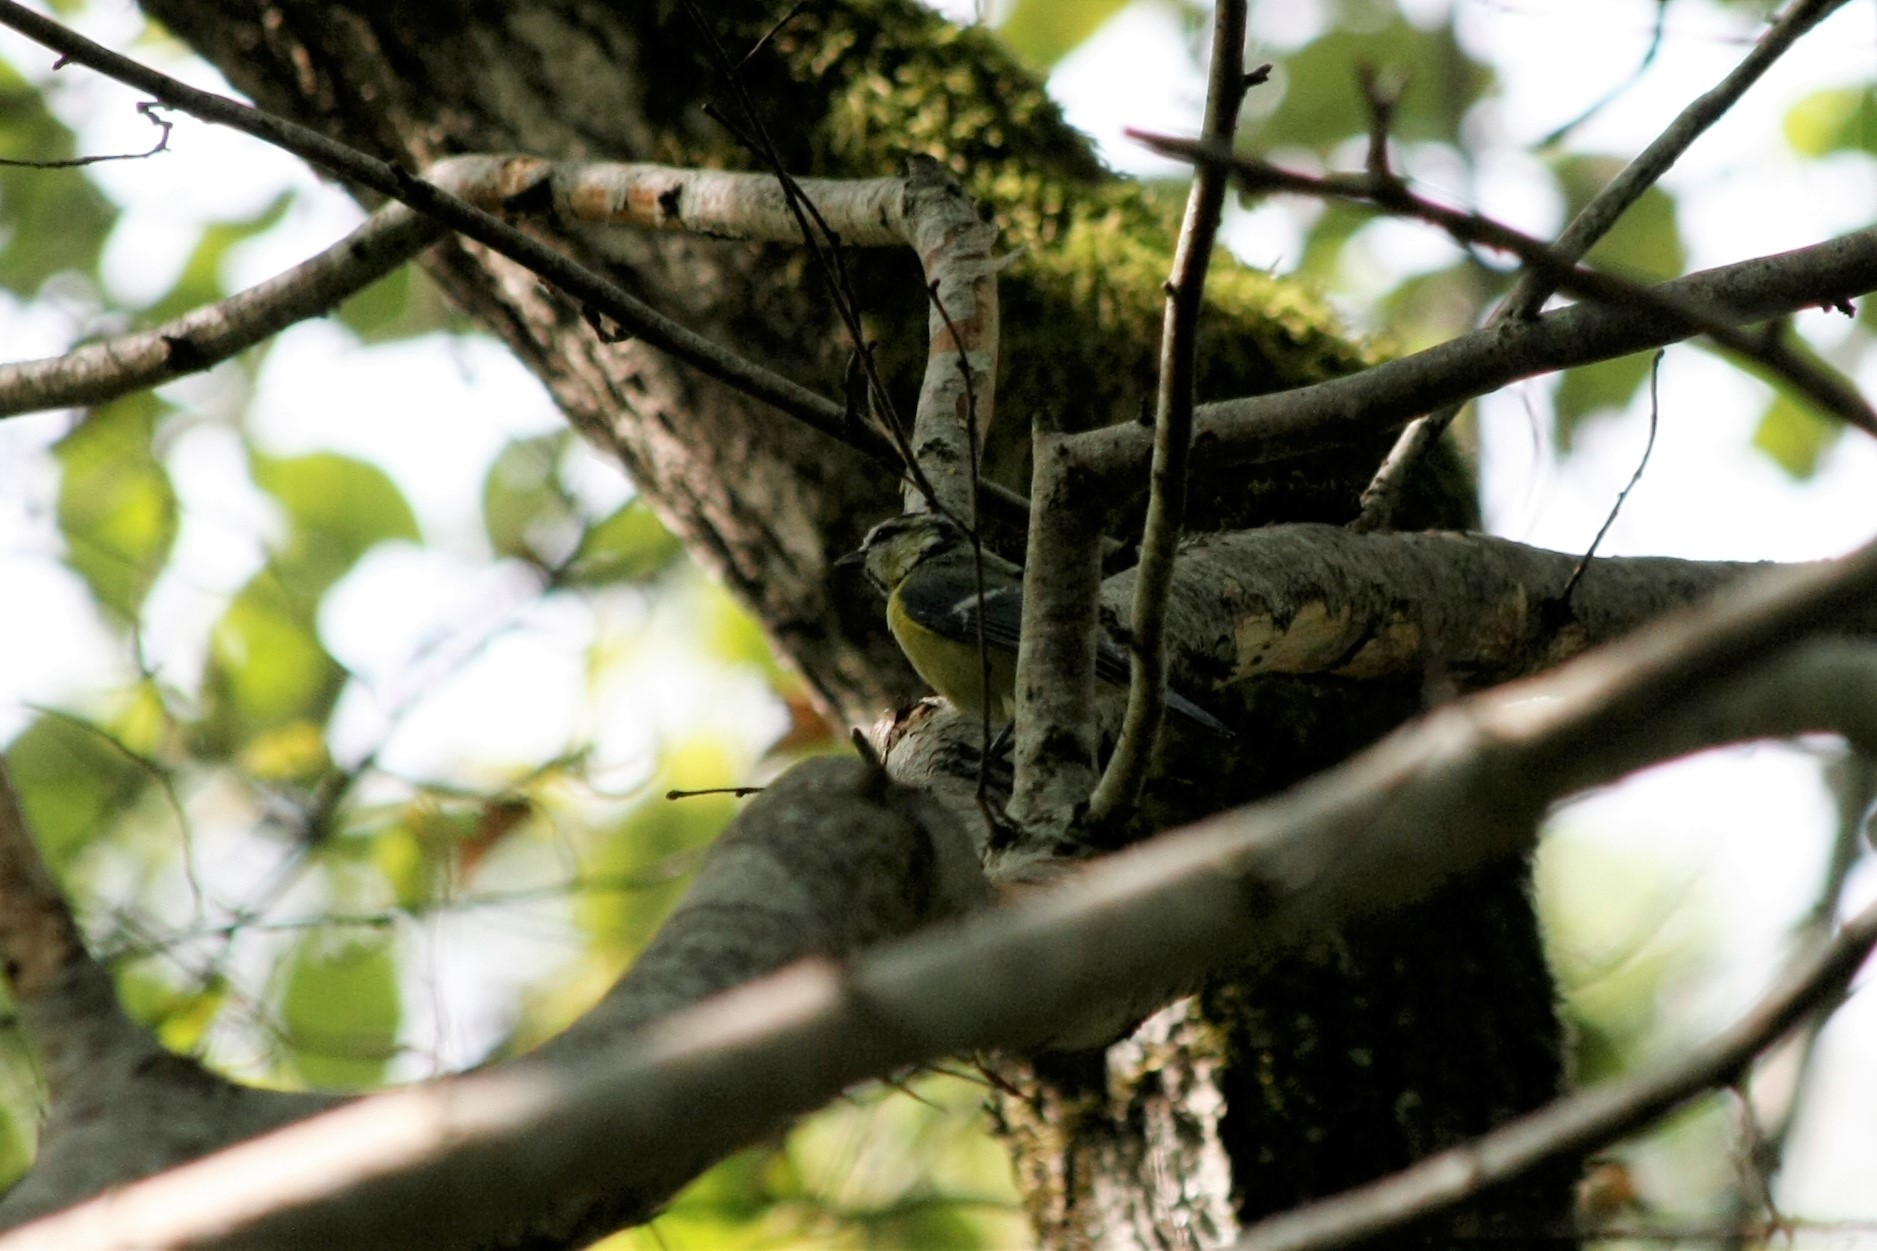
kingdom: Animalia
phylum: Chordata
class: Aves
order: Passeriformes
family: Paridae
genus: Cyanistes
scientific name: Cyanistes caeruleus
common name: Eurasian blue tit
